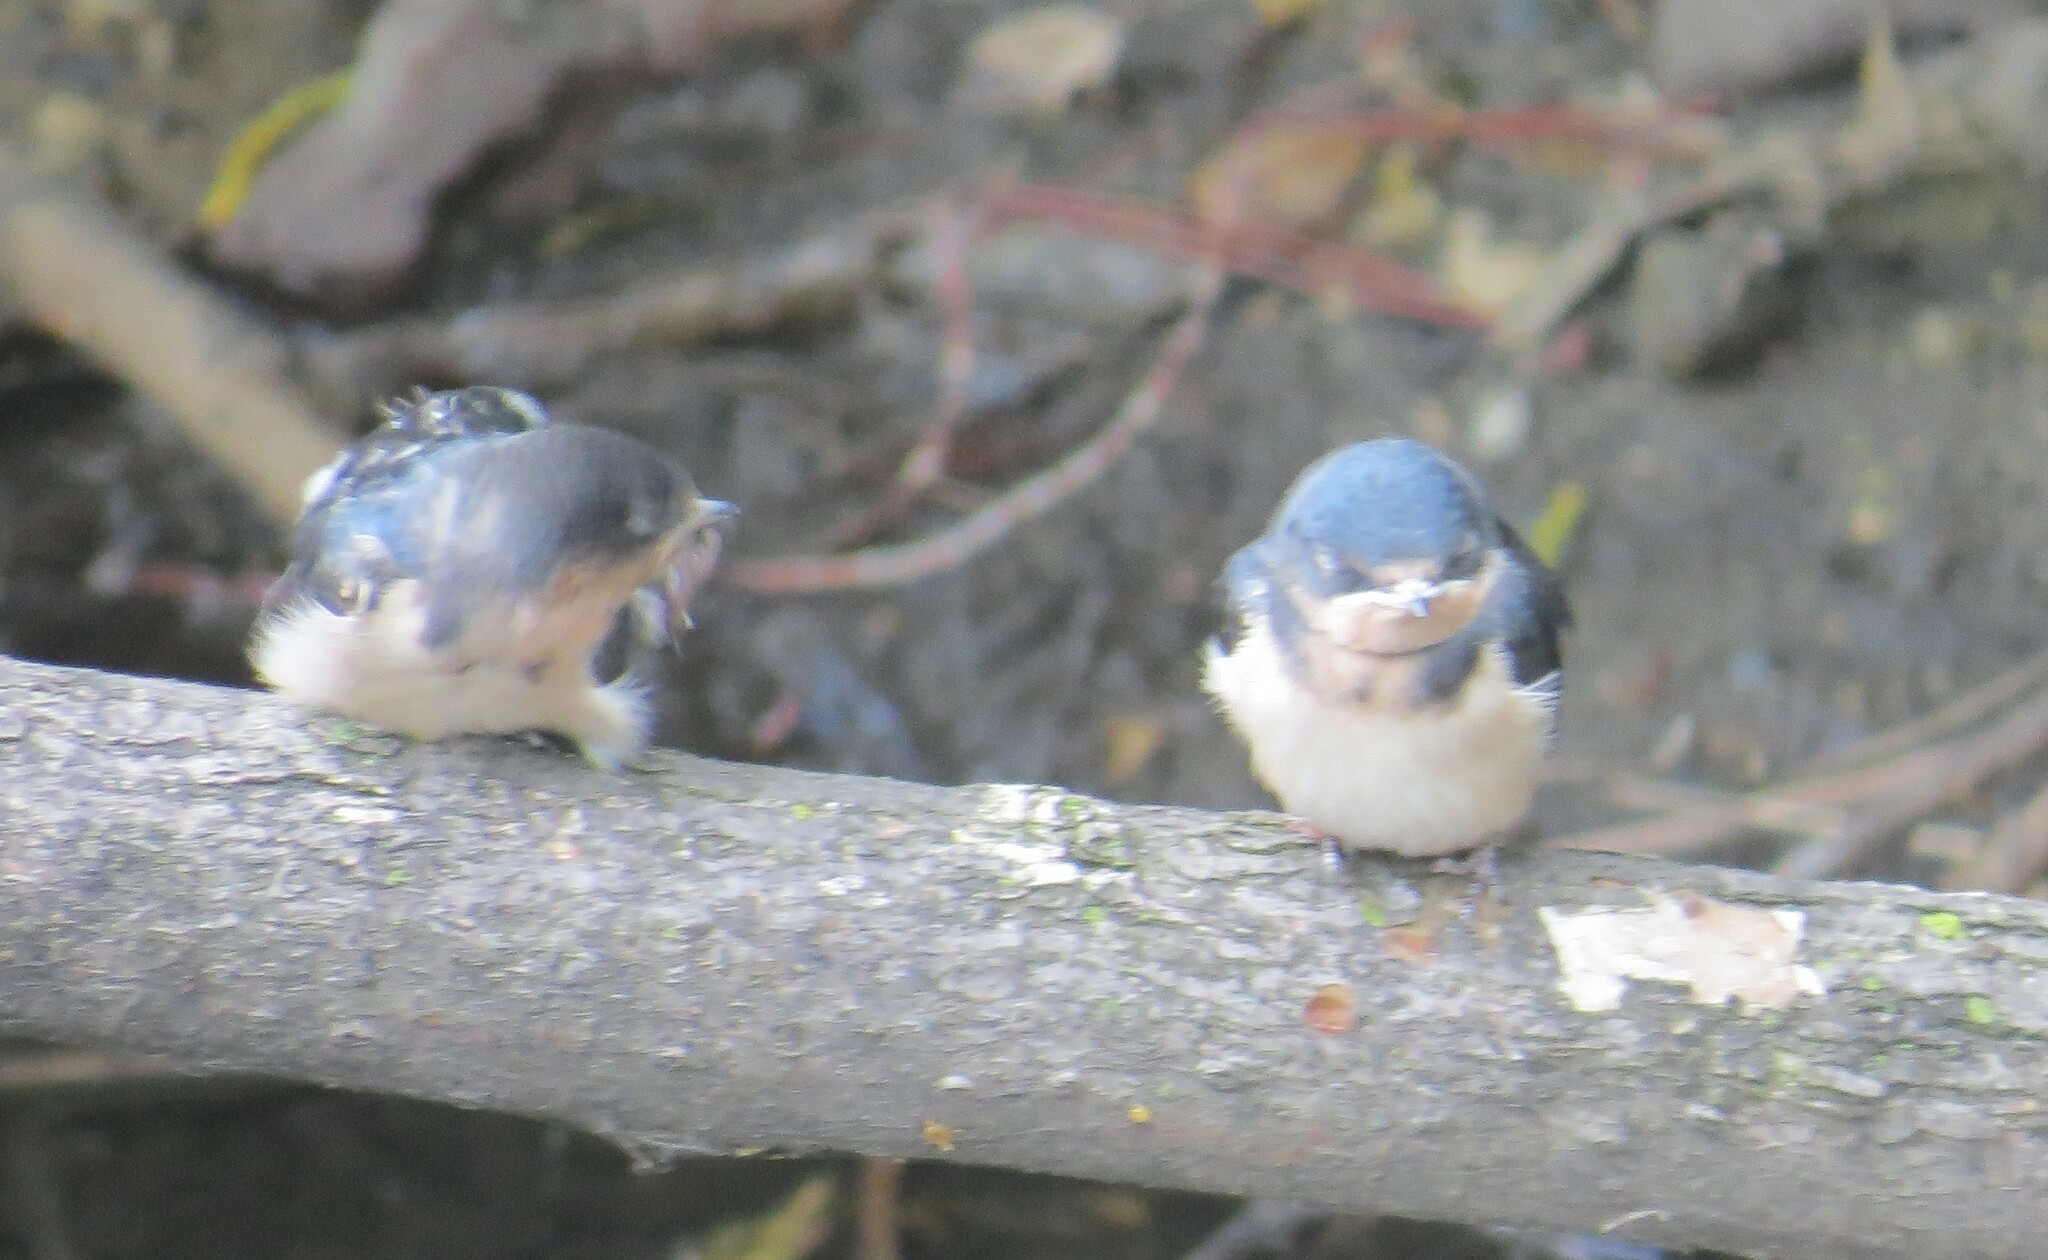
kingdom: Animalia
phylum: Chordata
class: Aves
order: Passeriformes
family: Hirundinidae
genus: Hirundo
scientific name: Hirundo rustica
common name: Barn swallow
